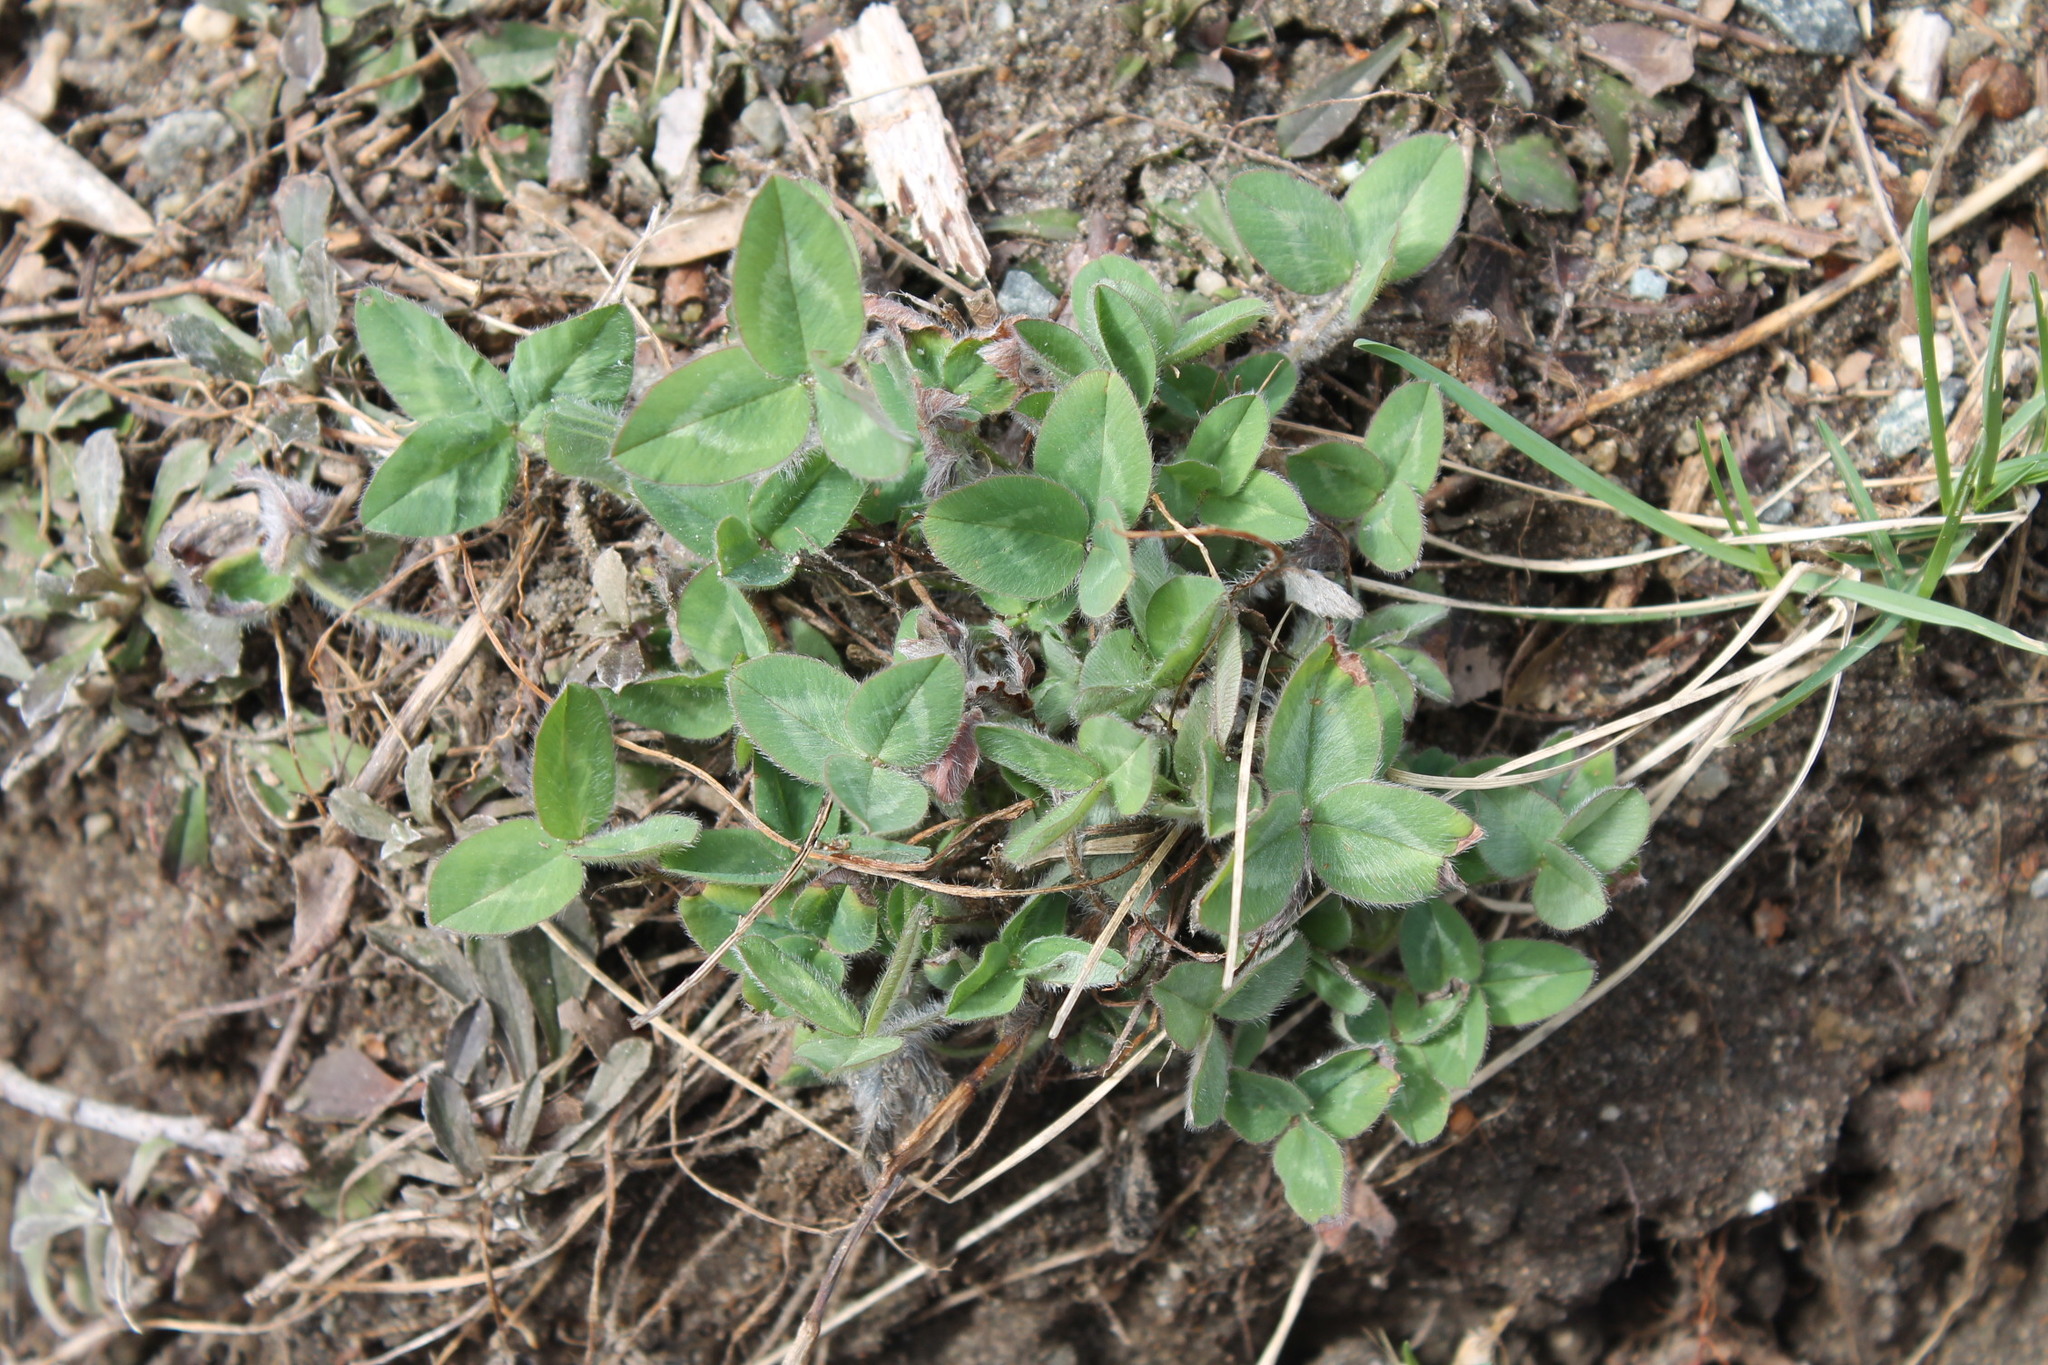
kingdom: Plantae
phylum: Tracheophyta
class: Magnoliopsida
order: Fabales
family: Fabaceae
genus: Trifolium
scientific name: Trifolium pratense
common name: Red clover
